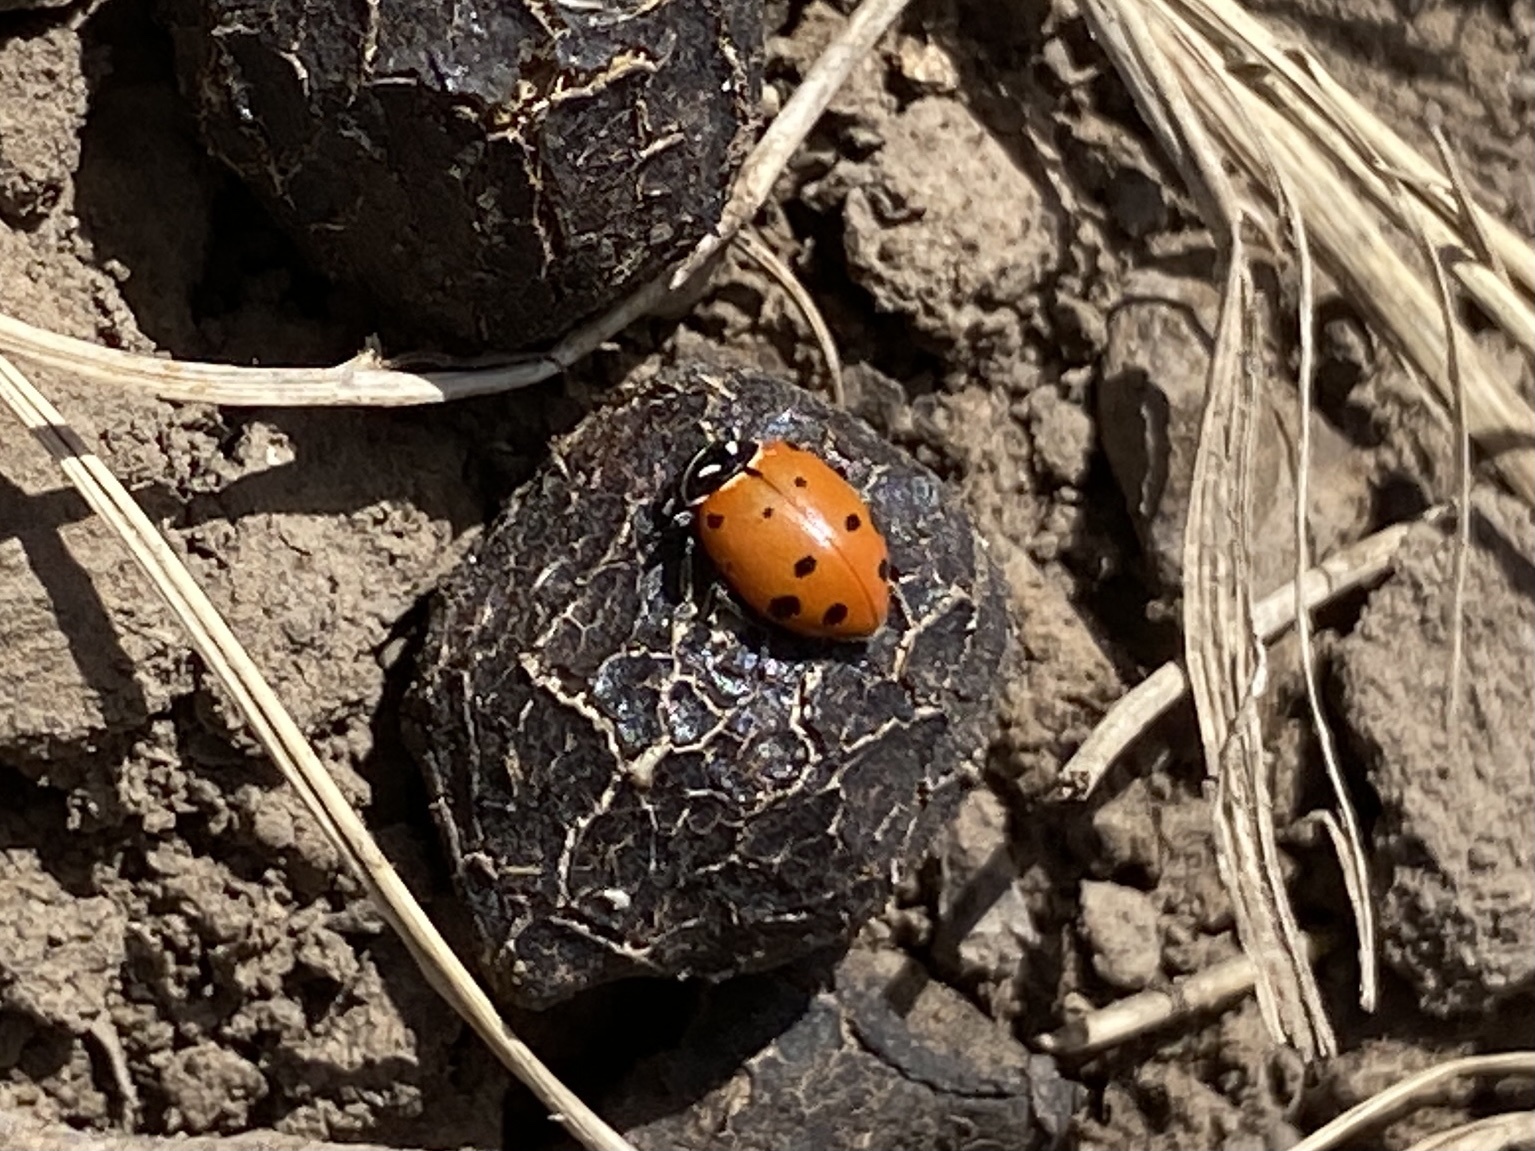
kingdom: Animalia
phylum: Arthropoda
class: Insecta
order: Coleoptera
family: Coccinellidae
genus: Hippodamia
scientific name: Hippodamia convergens
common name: Convergent lady beetle
